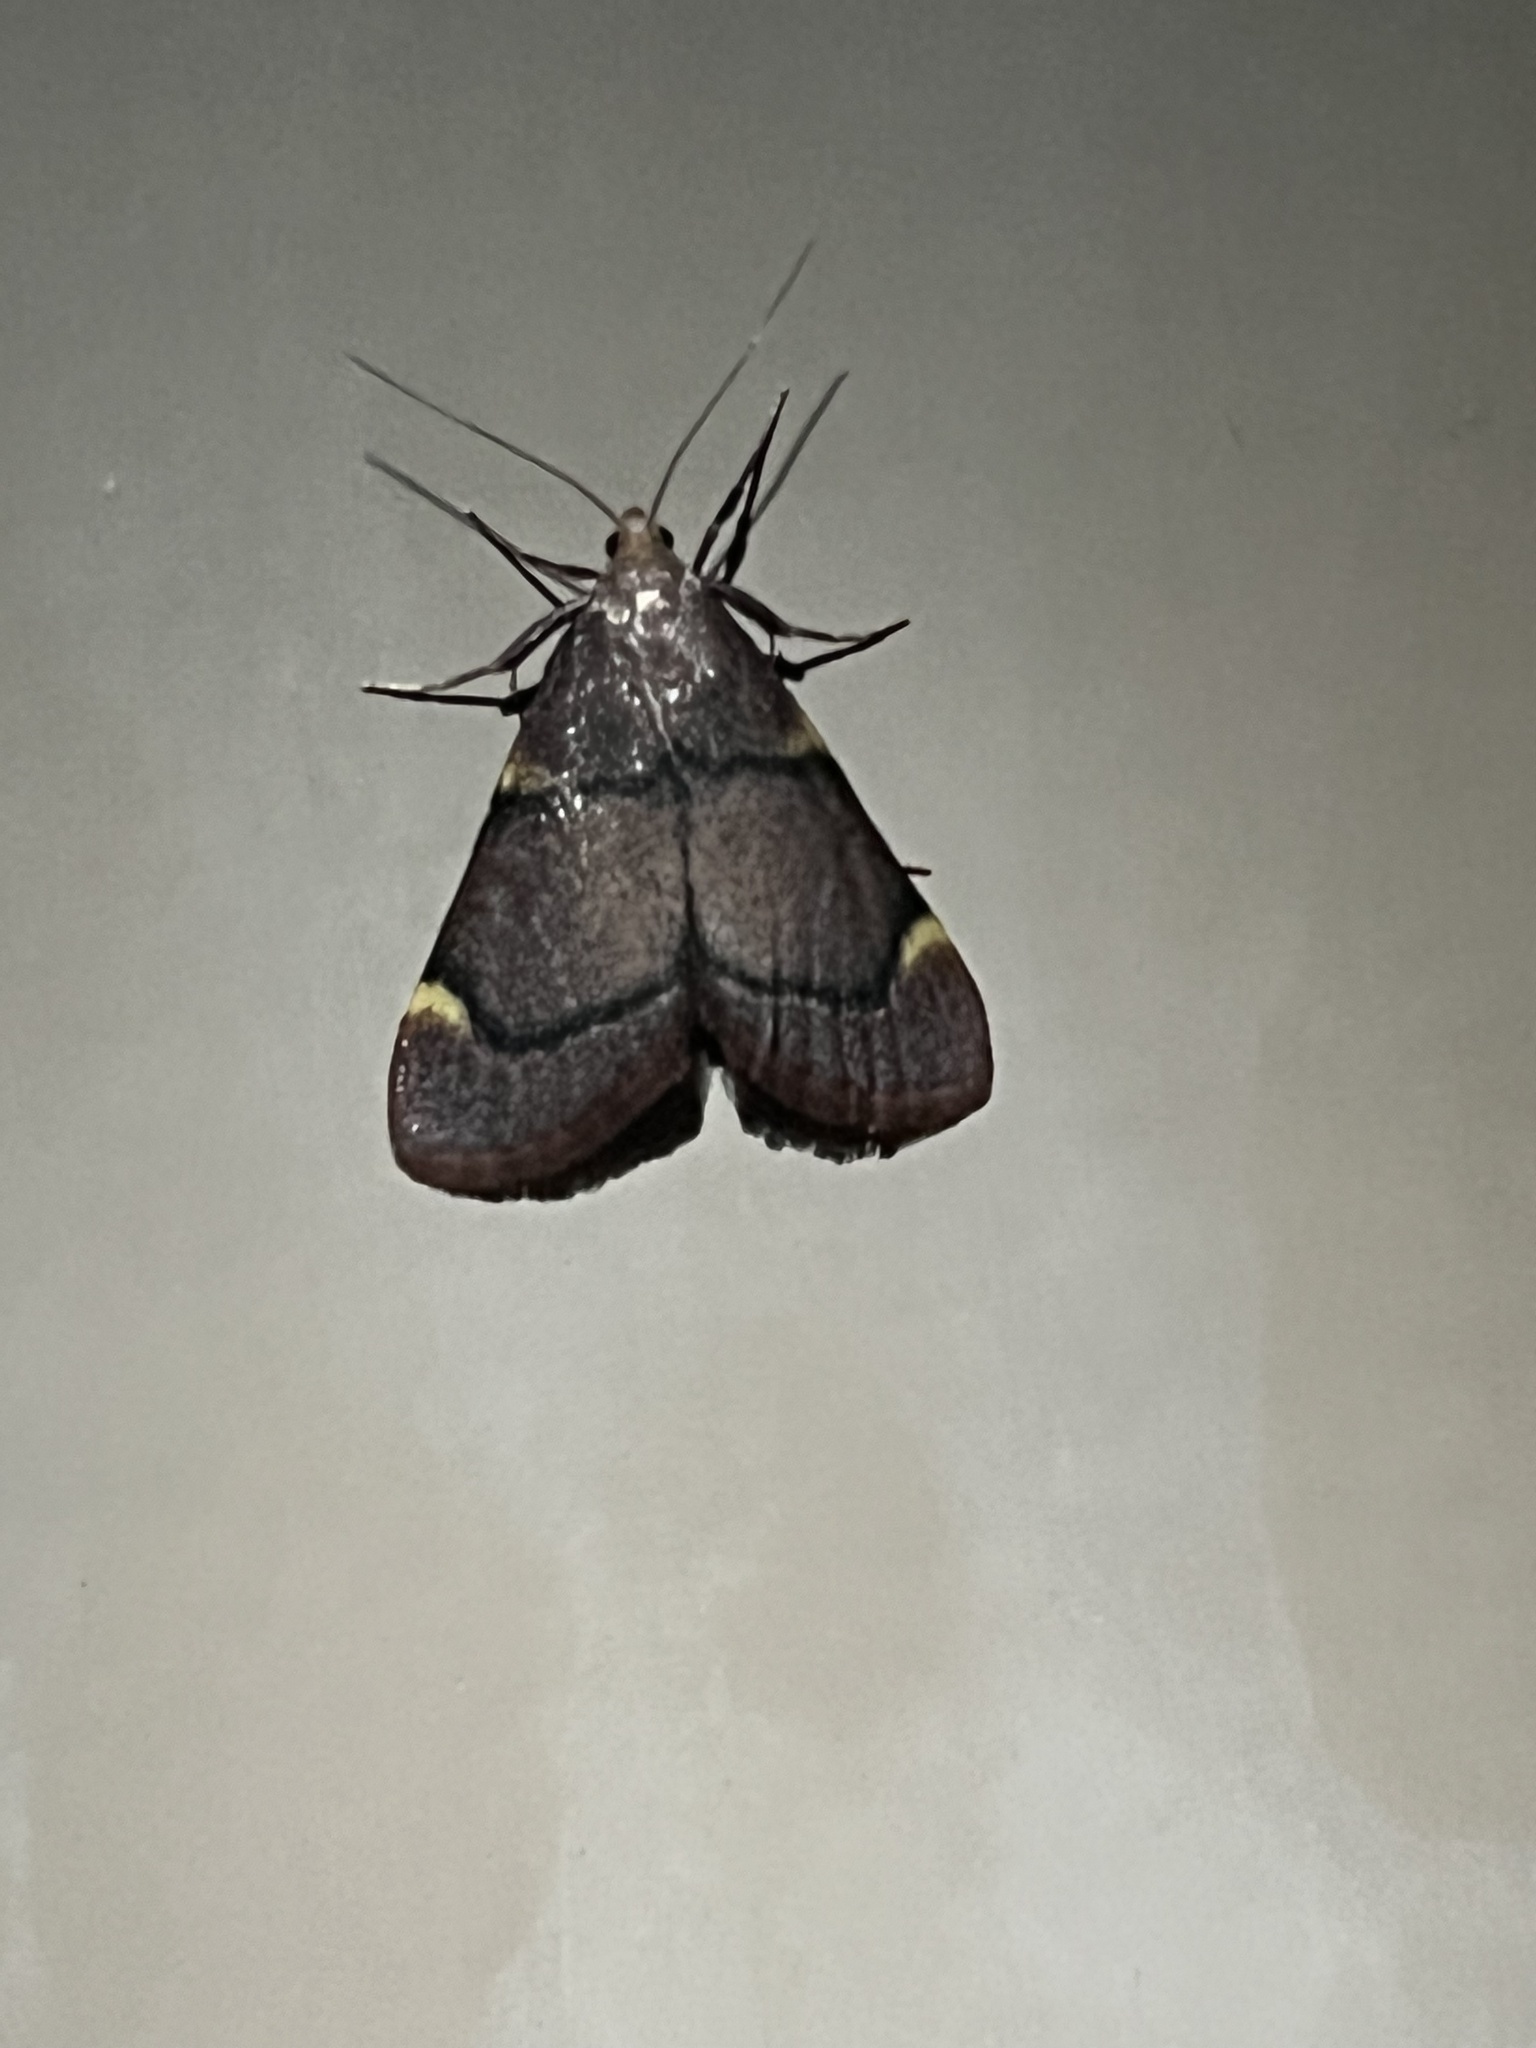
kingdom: Animalia
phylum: Arthropoda
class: Insecta
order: Lepidoptera
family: Pyralidae
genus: Hypsopygia
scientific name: Hypsopygia thymetusalis
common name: Spruce needleworm moth
